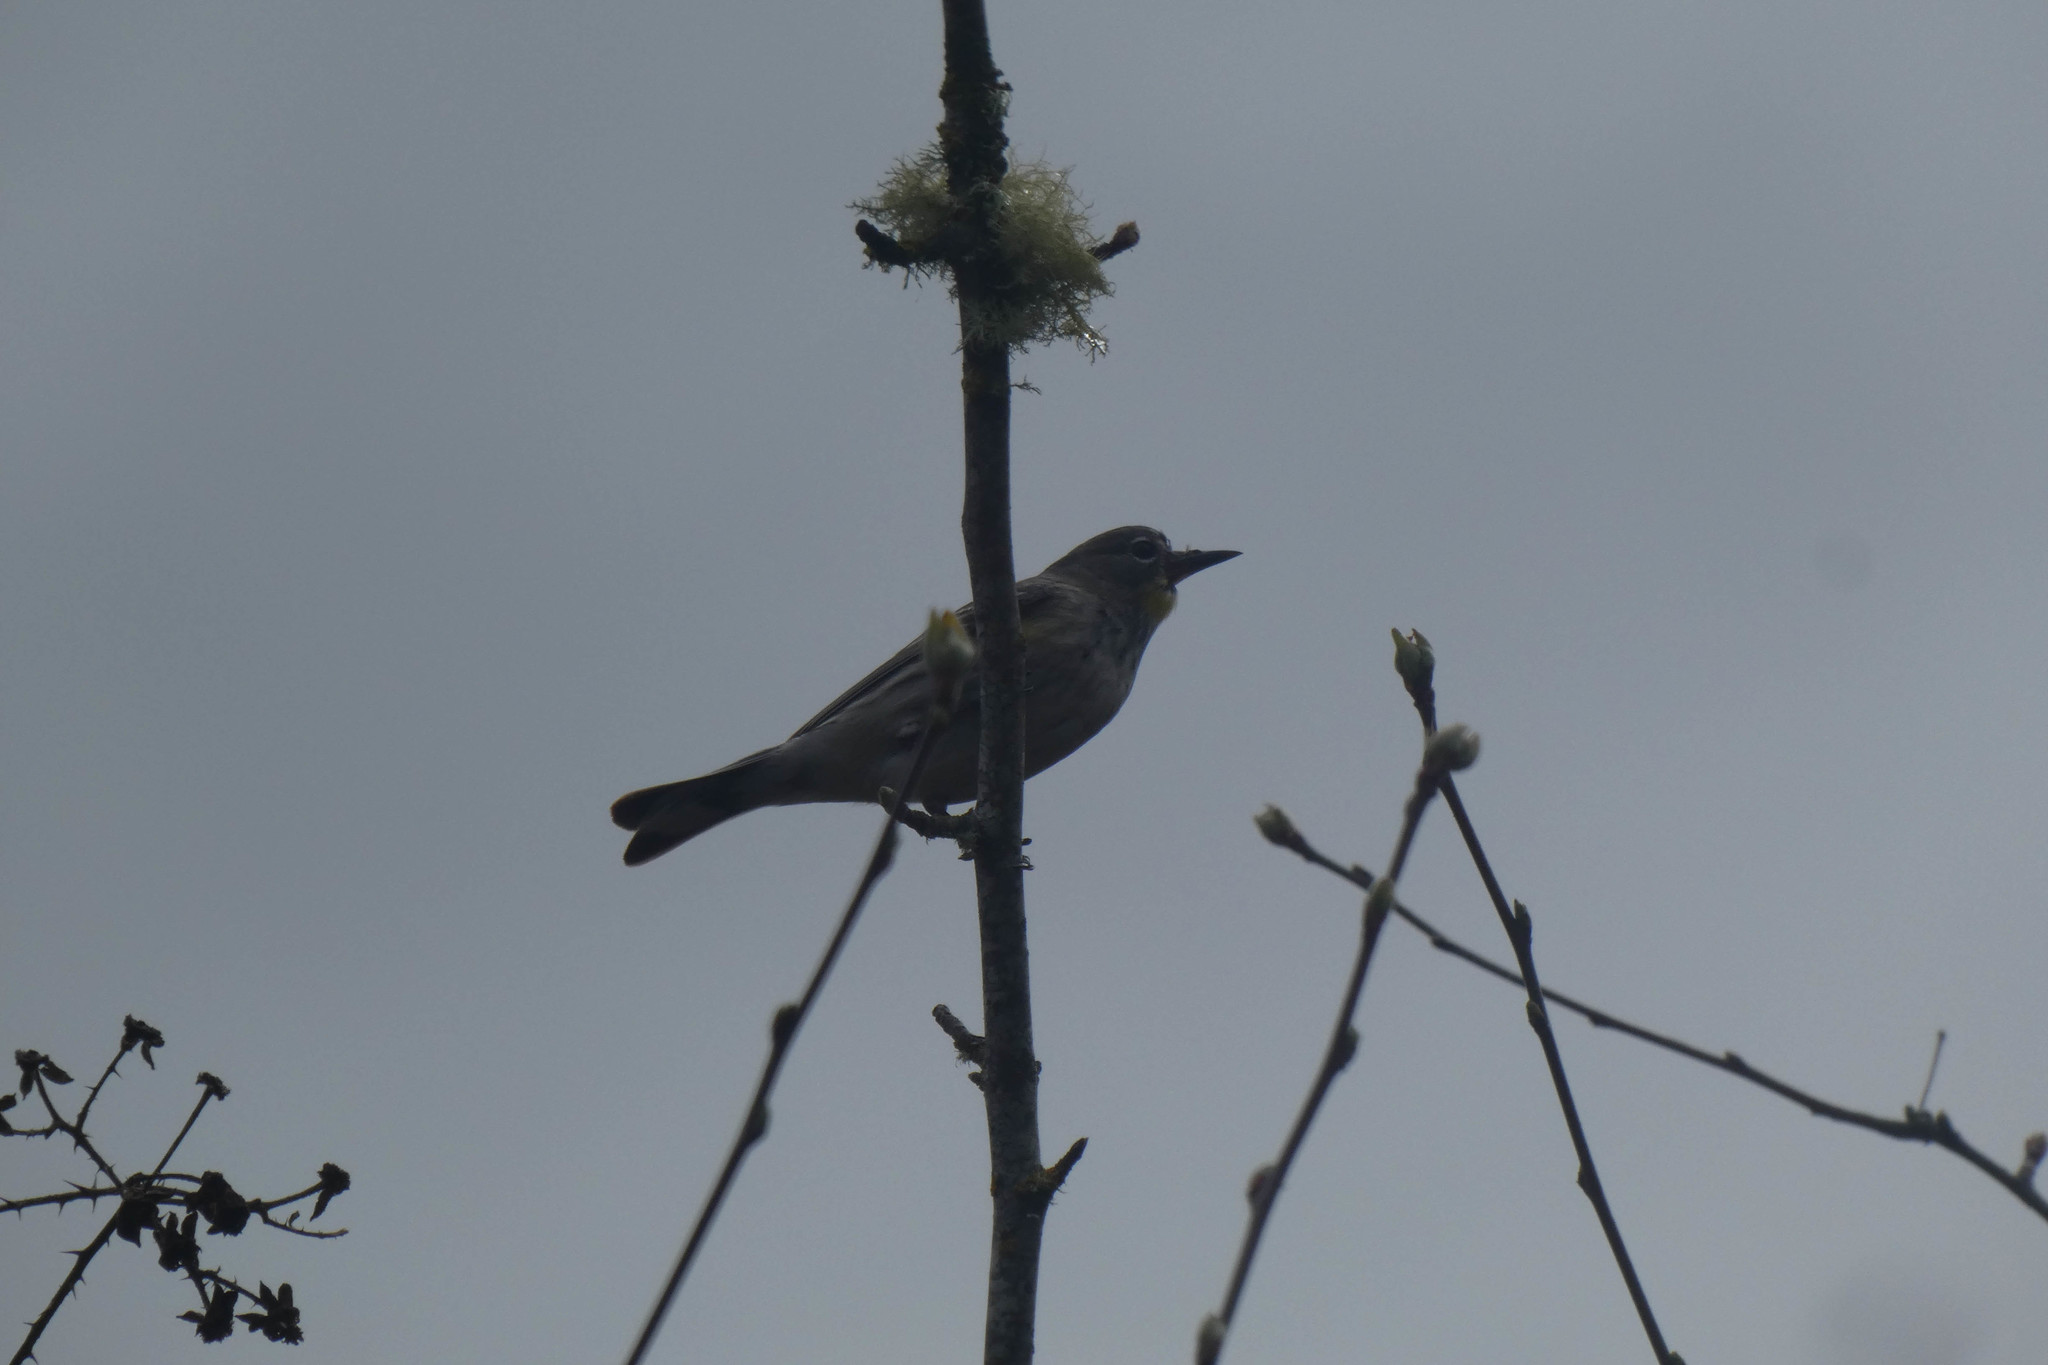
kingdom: Animalia
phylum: Chordata
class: Aves
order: Passeriformes
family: Parulidae
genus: Setophaga
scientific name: Setophaga coronata
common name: Myrtle warbler
